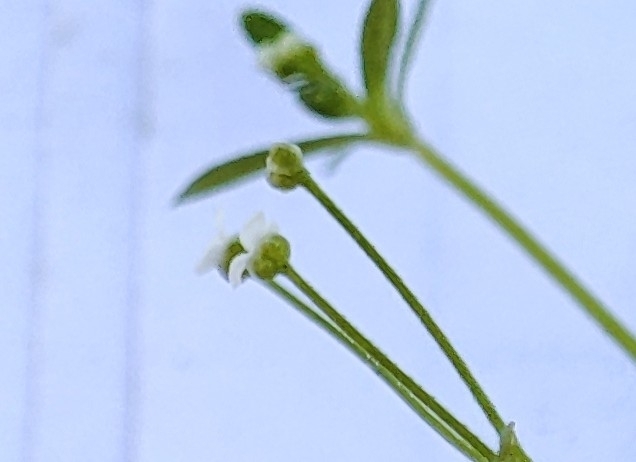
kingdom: Plantae
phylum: Tracheophyta
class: Magnoliopsida
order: Gentianales
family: Rubiaceae
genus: Galium
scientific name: Galium palustre
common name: Common marsh-bedstraw
